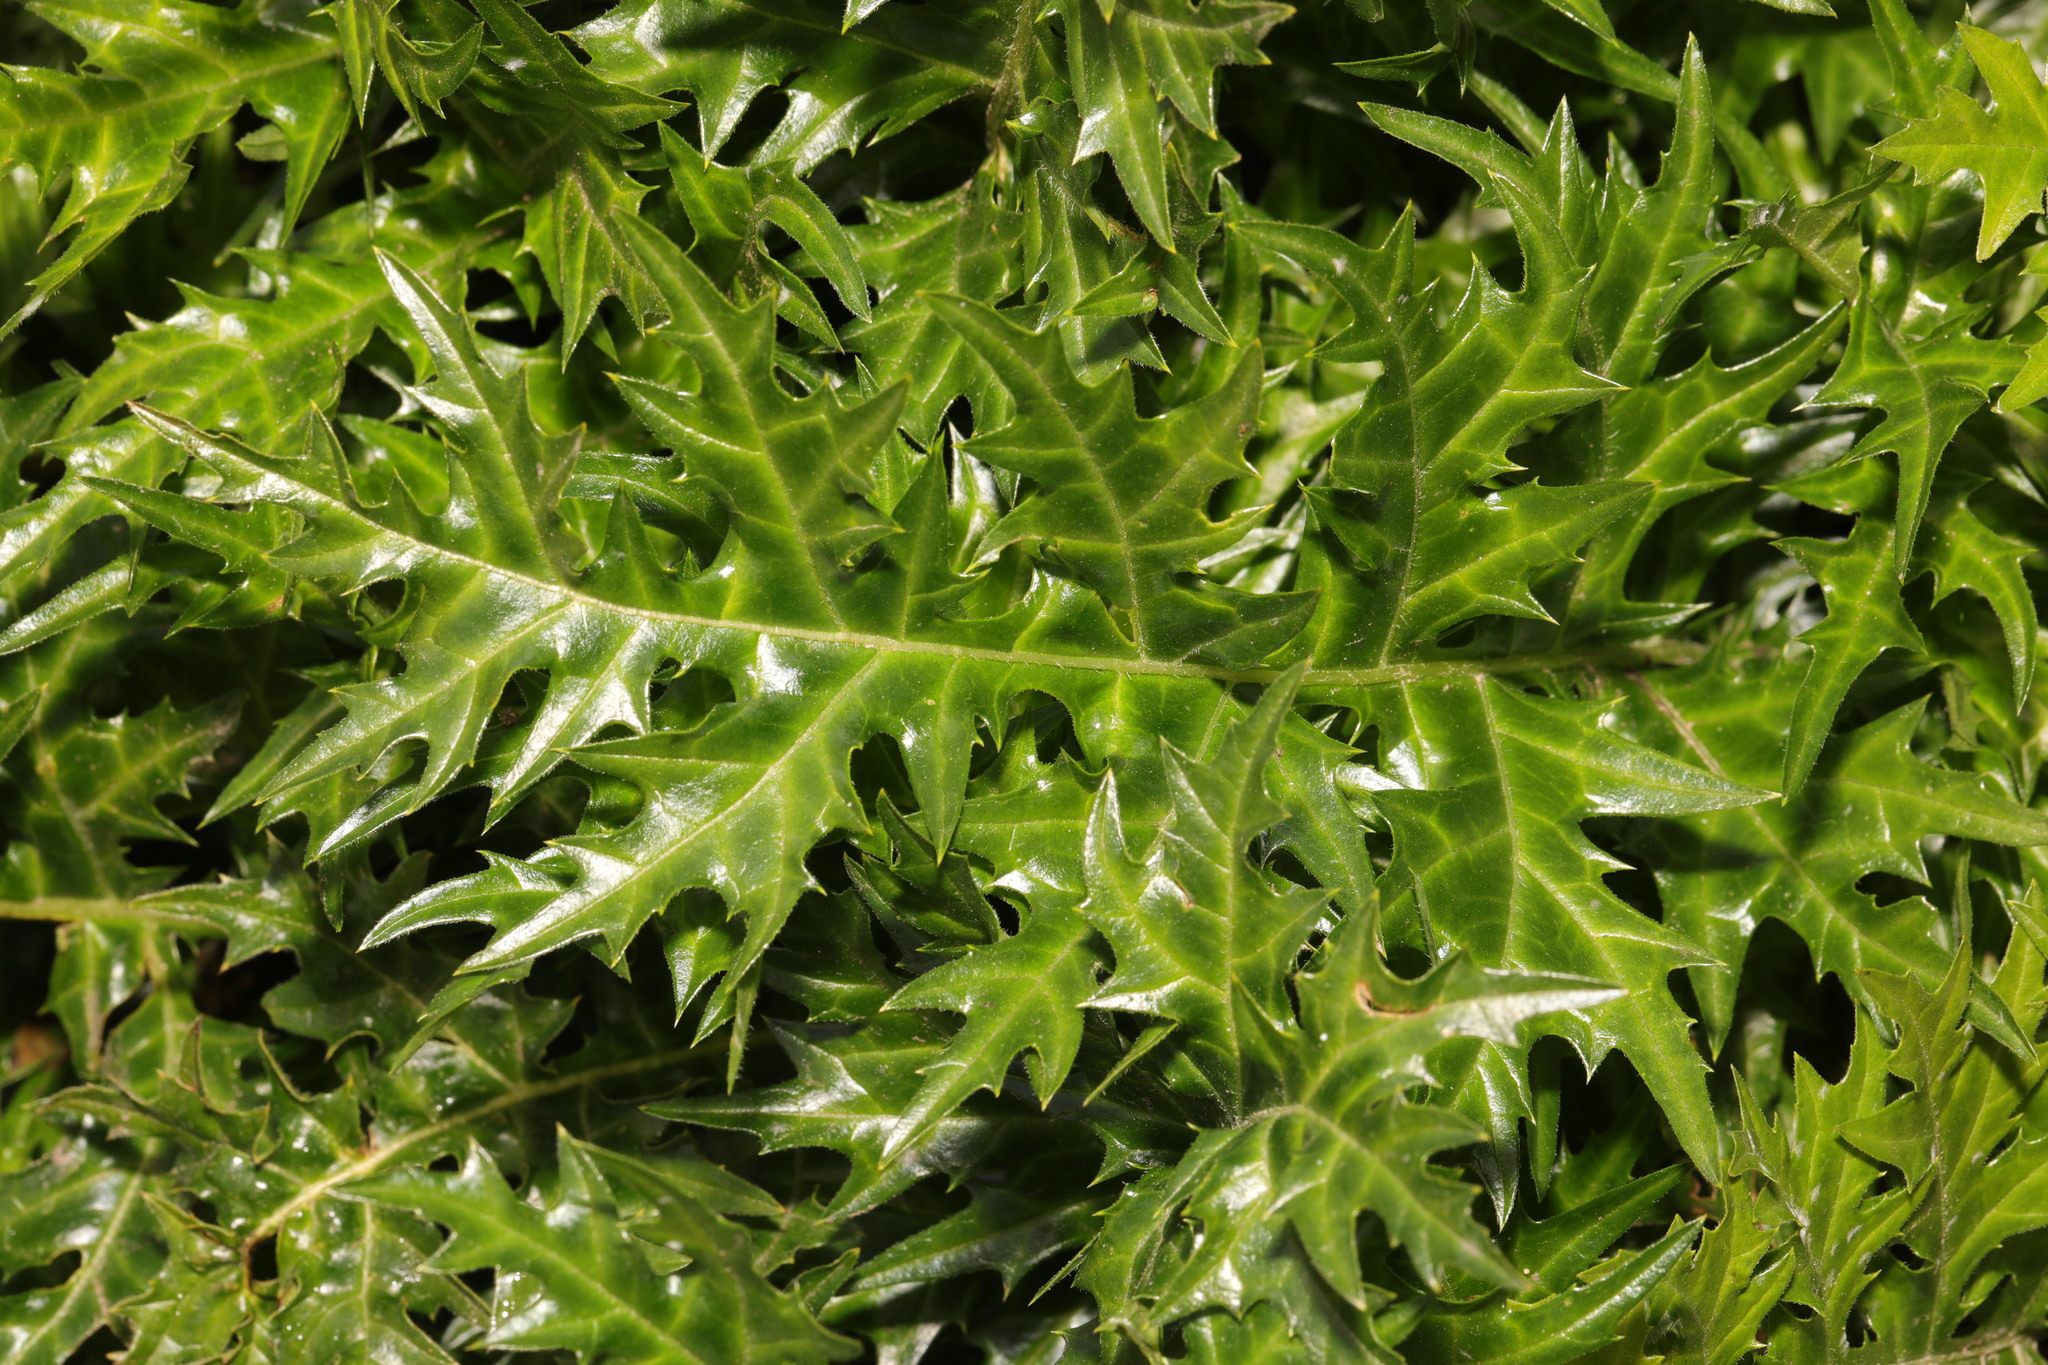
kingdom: Plantae
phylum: Tracheophyta
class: Magnoliopsida
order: Lamiales
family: Acanthaceae
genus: Acanthus
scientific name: Acanthus spinosus
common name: Spiny bear's-breech
